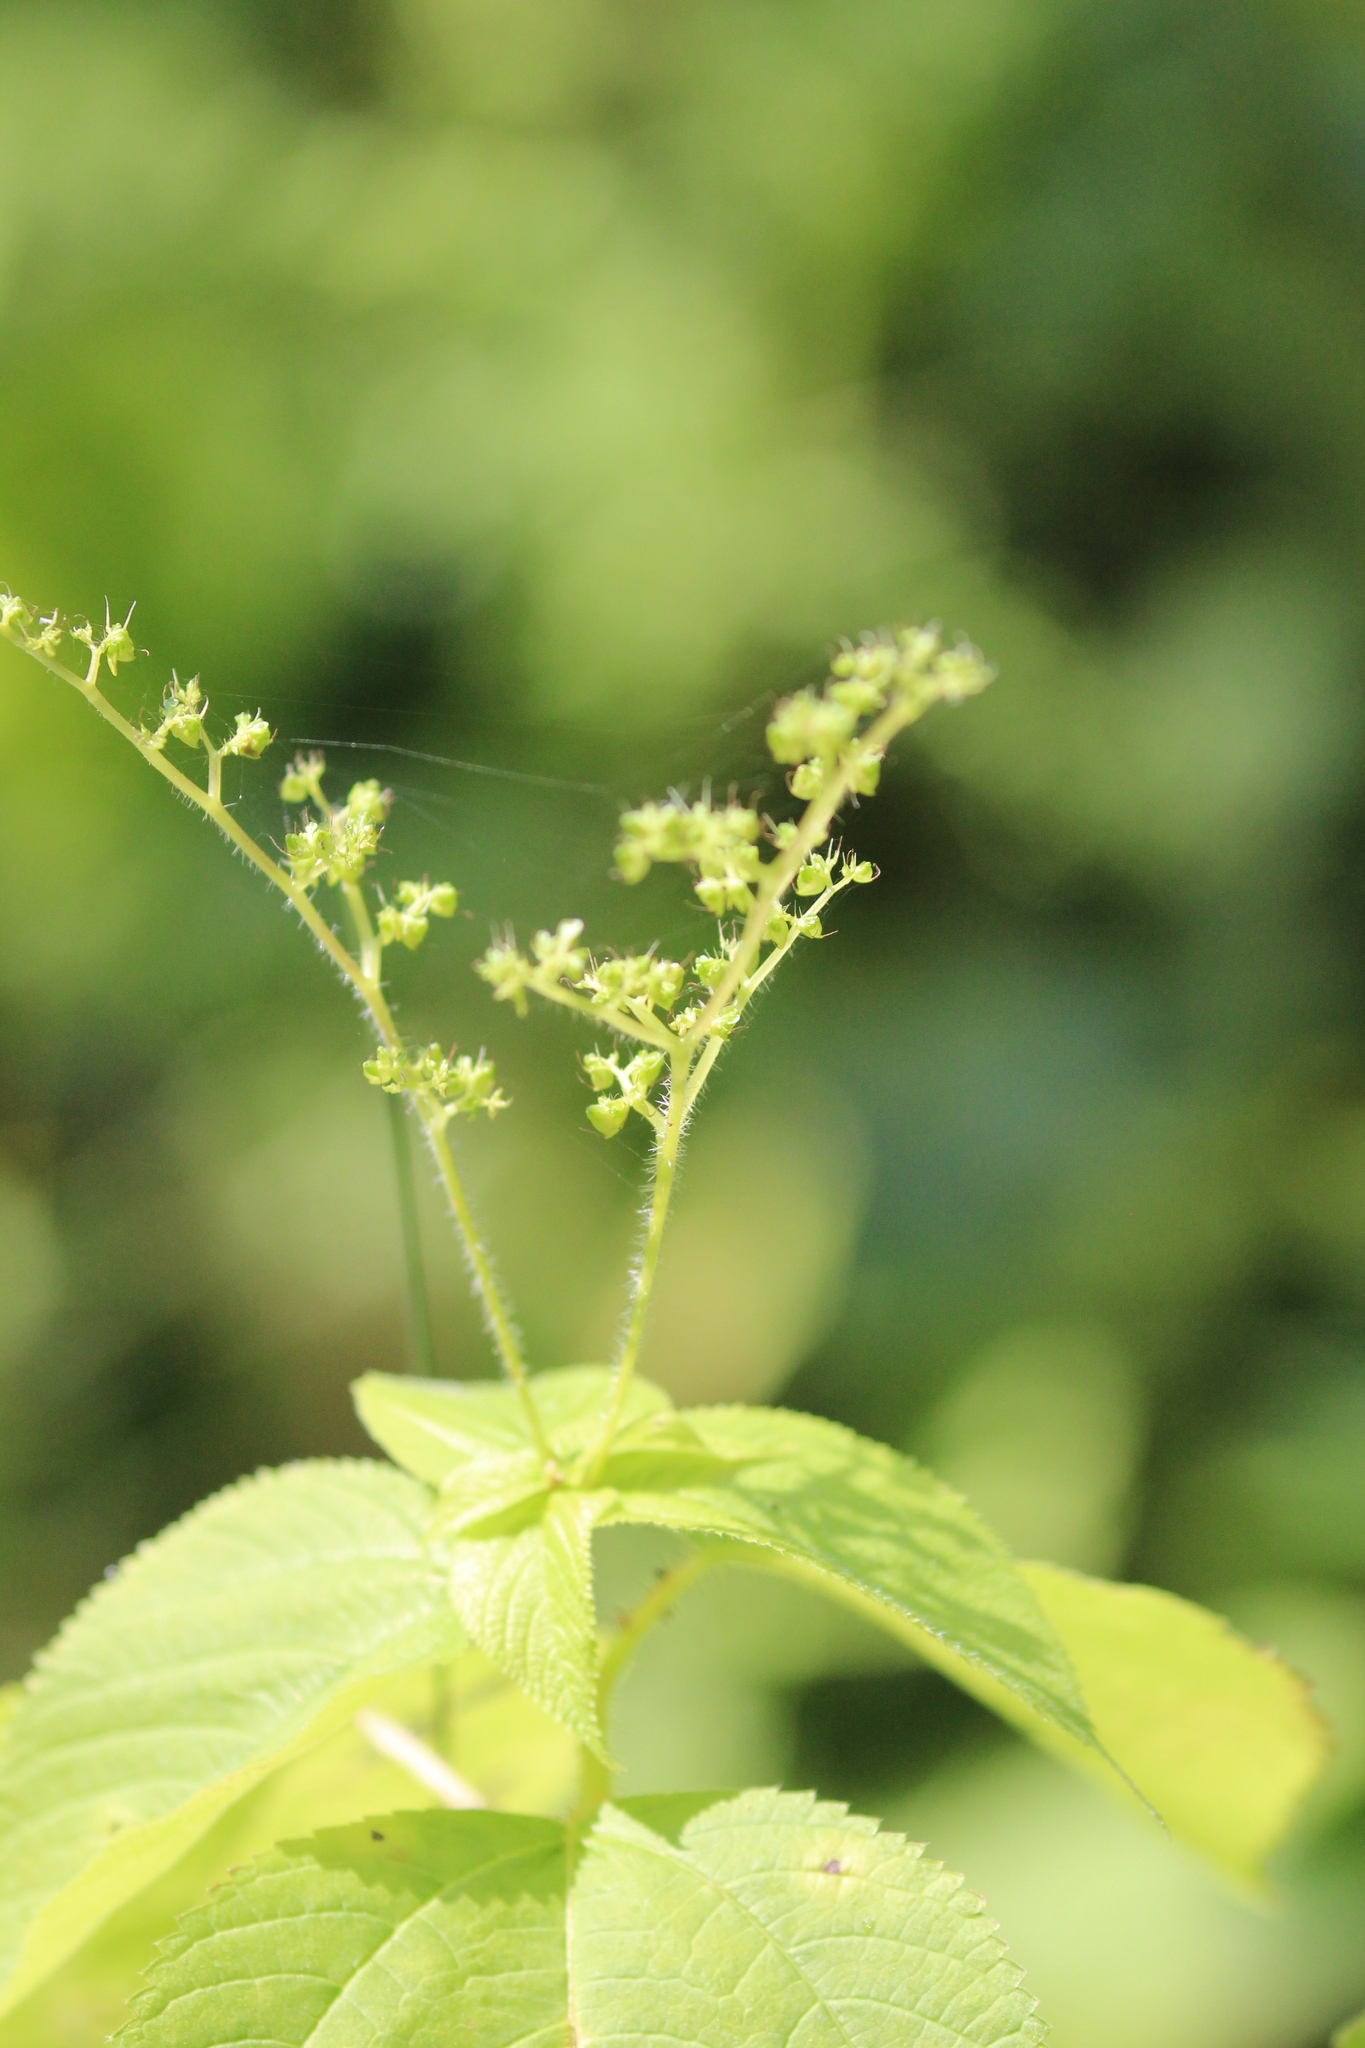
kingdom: Plantae
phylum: Tracheophyta
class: Magnoliopsida
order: Rosales
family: Urticaceae
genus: Laportea
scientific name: Laportea canadensis
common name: Canada nettle
